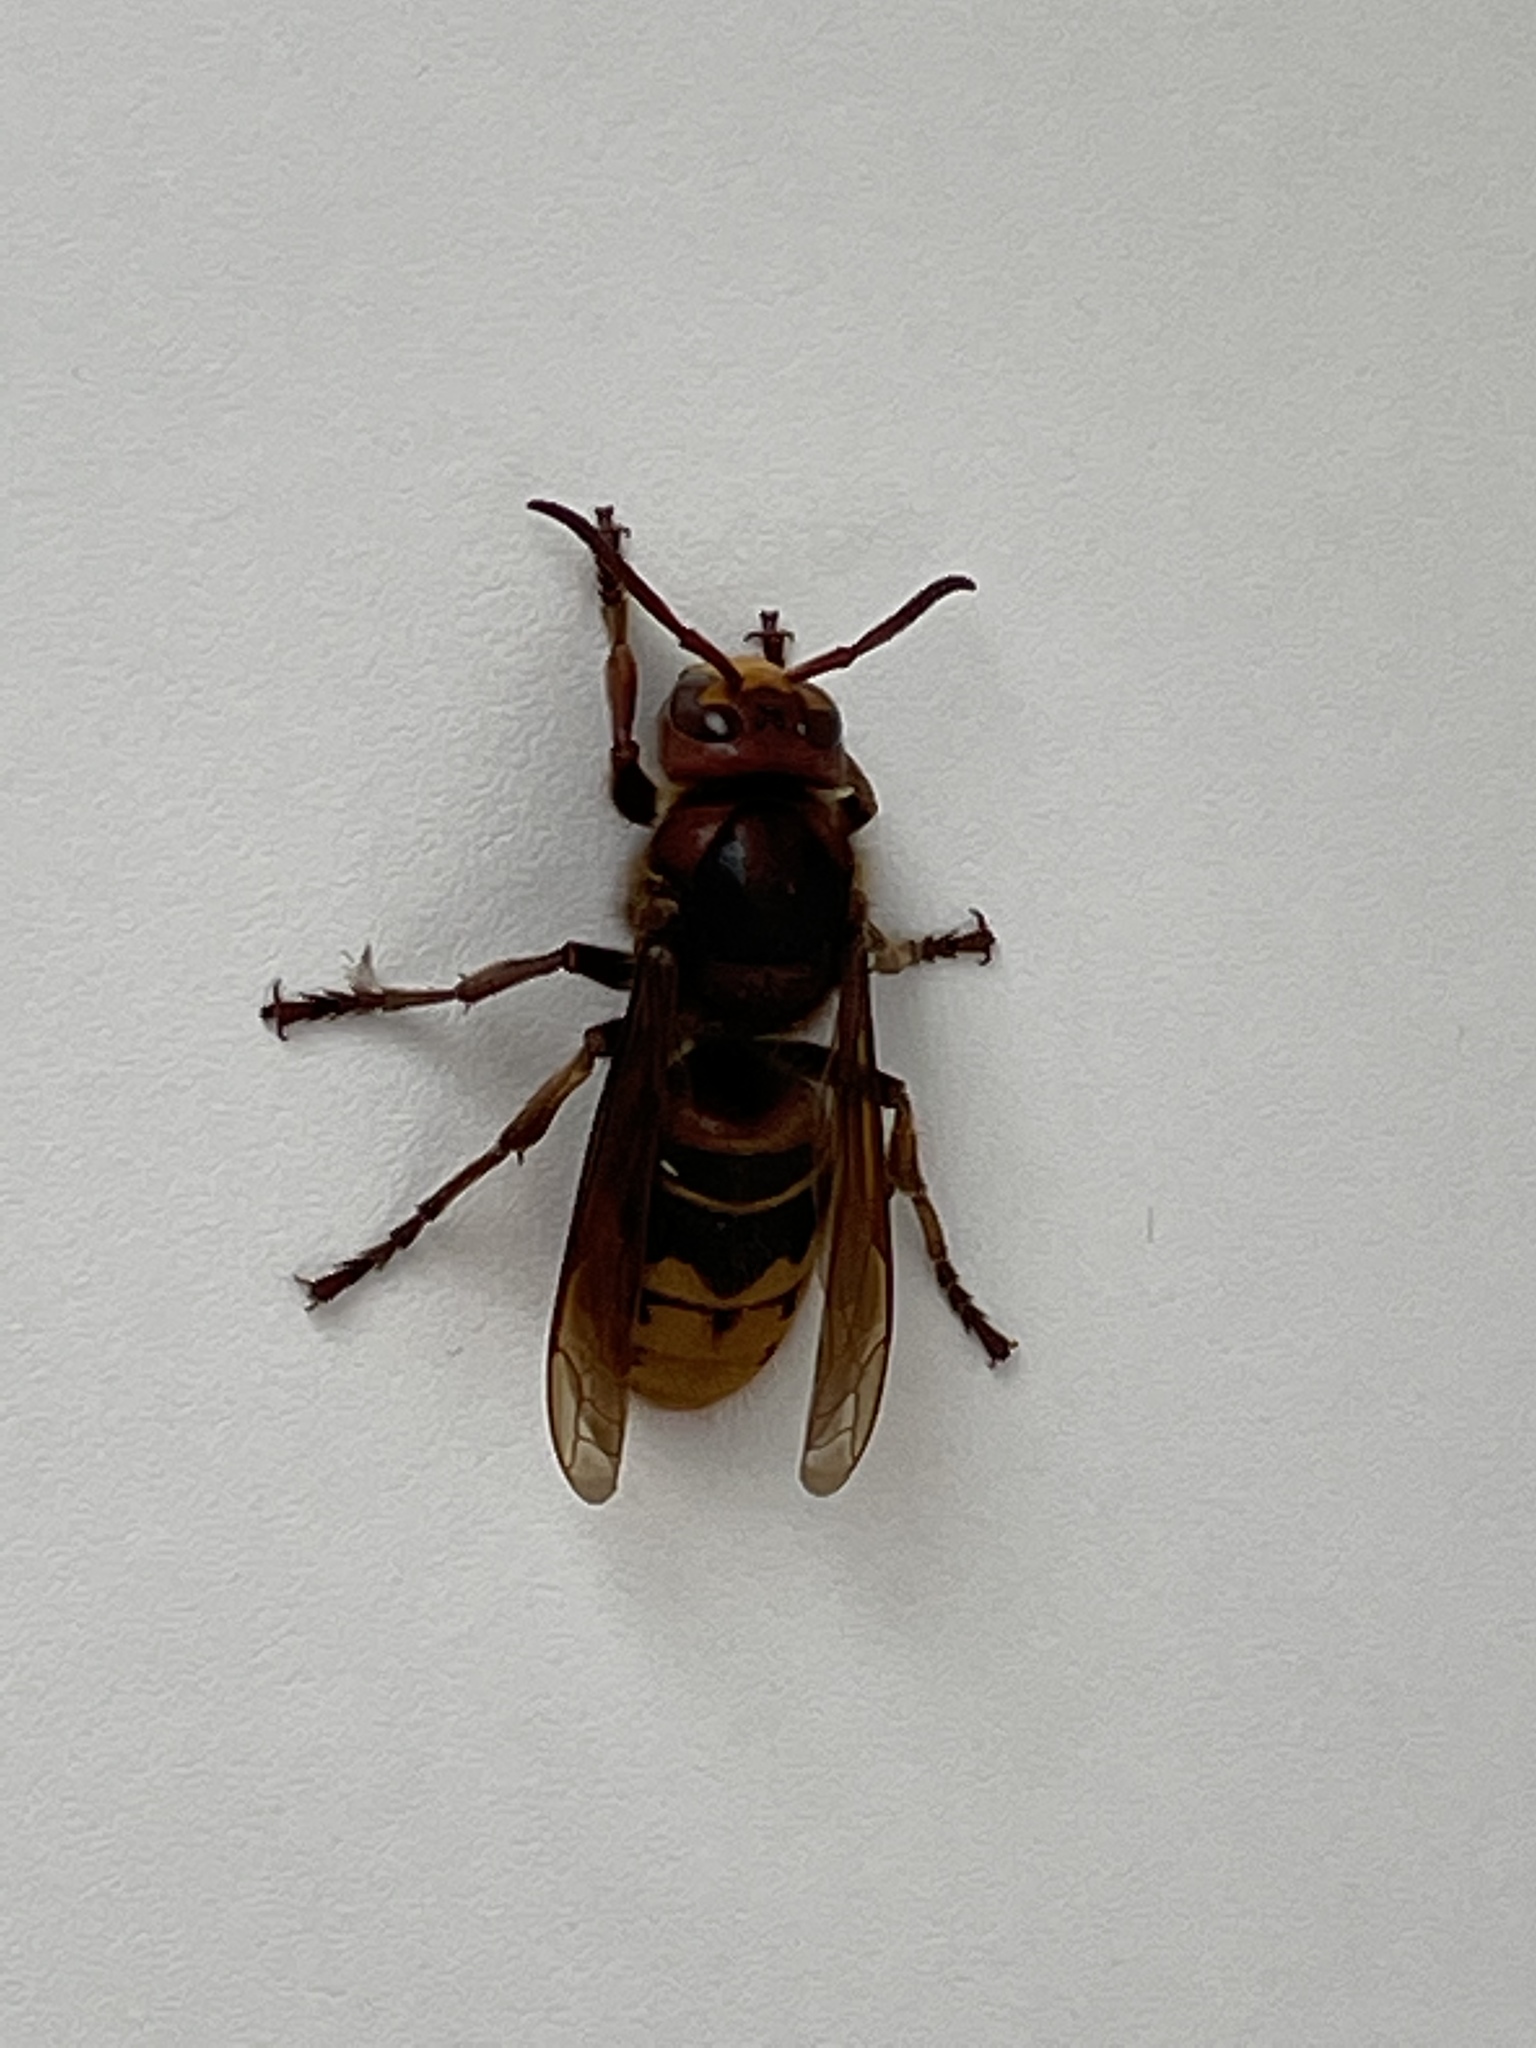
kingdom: Animalia
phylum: Arthropoda
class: Insecta
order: Hymenoptera
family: Vespidae
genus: Vespa
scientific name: Vespa crabro
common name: Hornet
